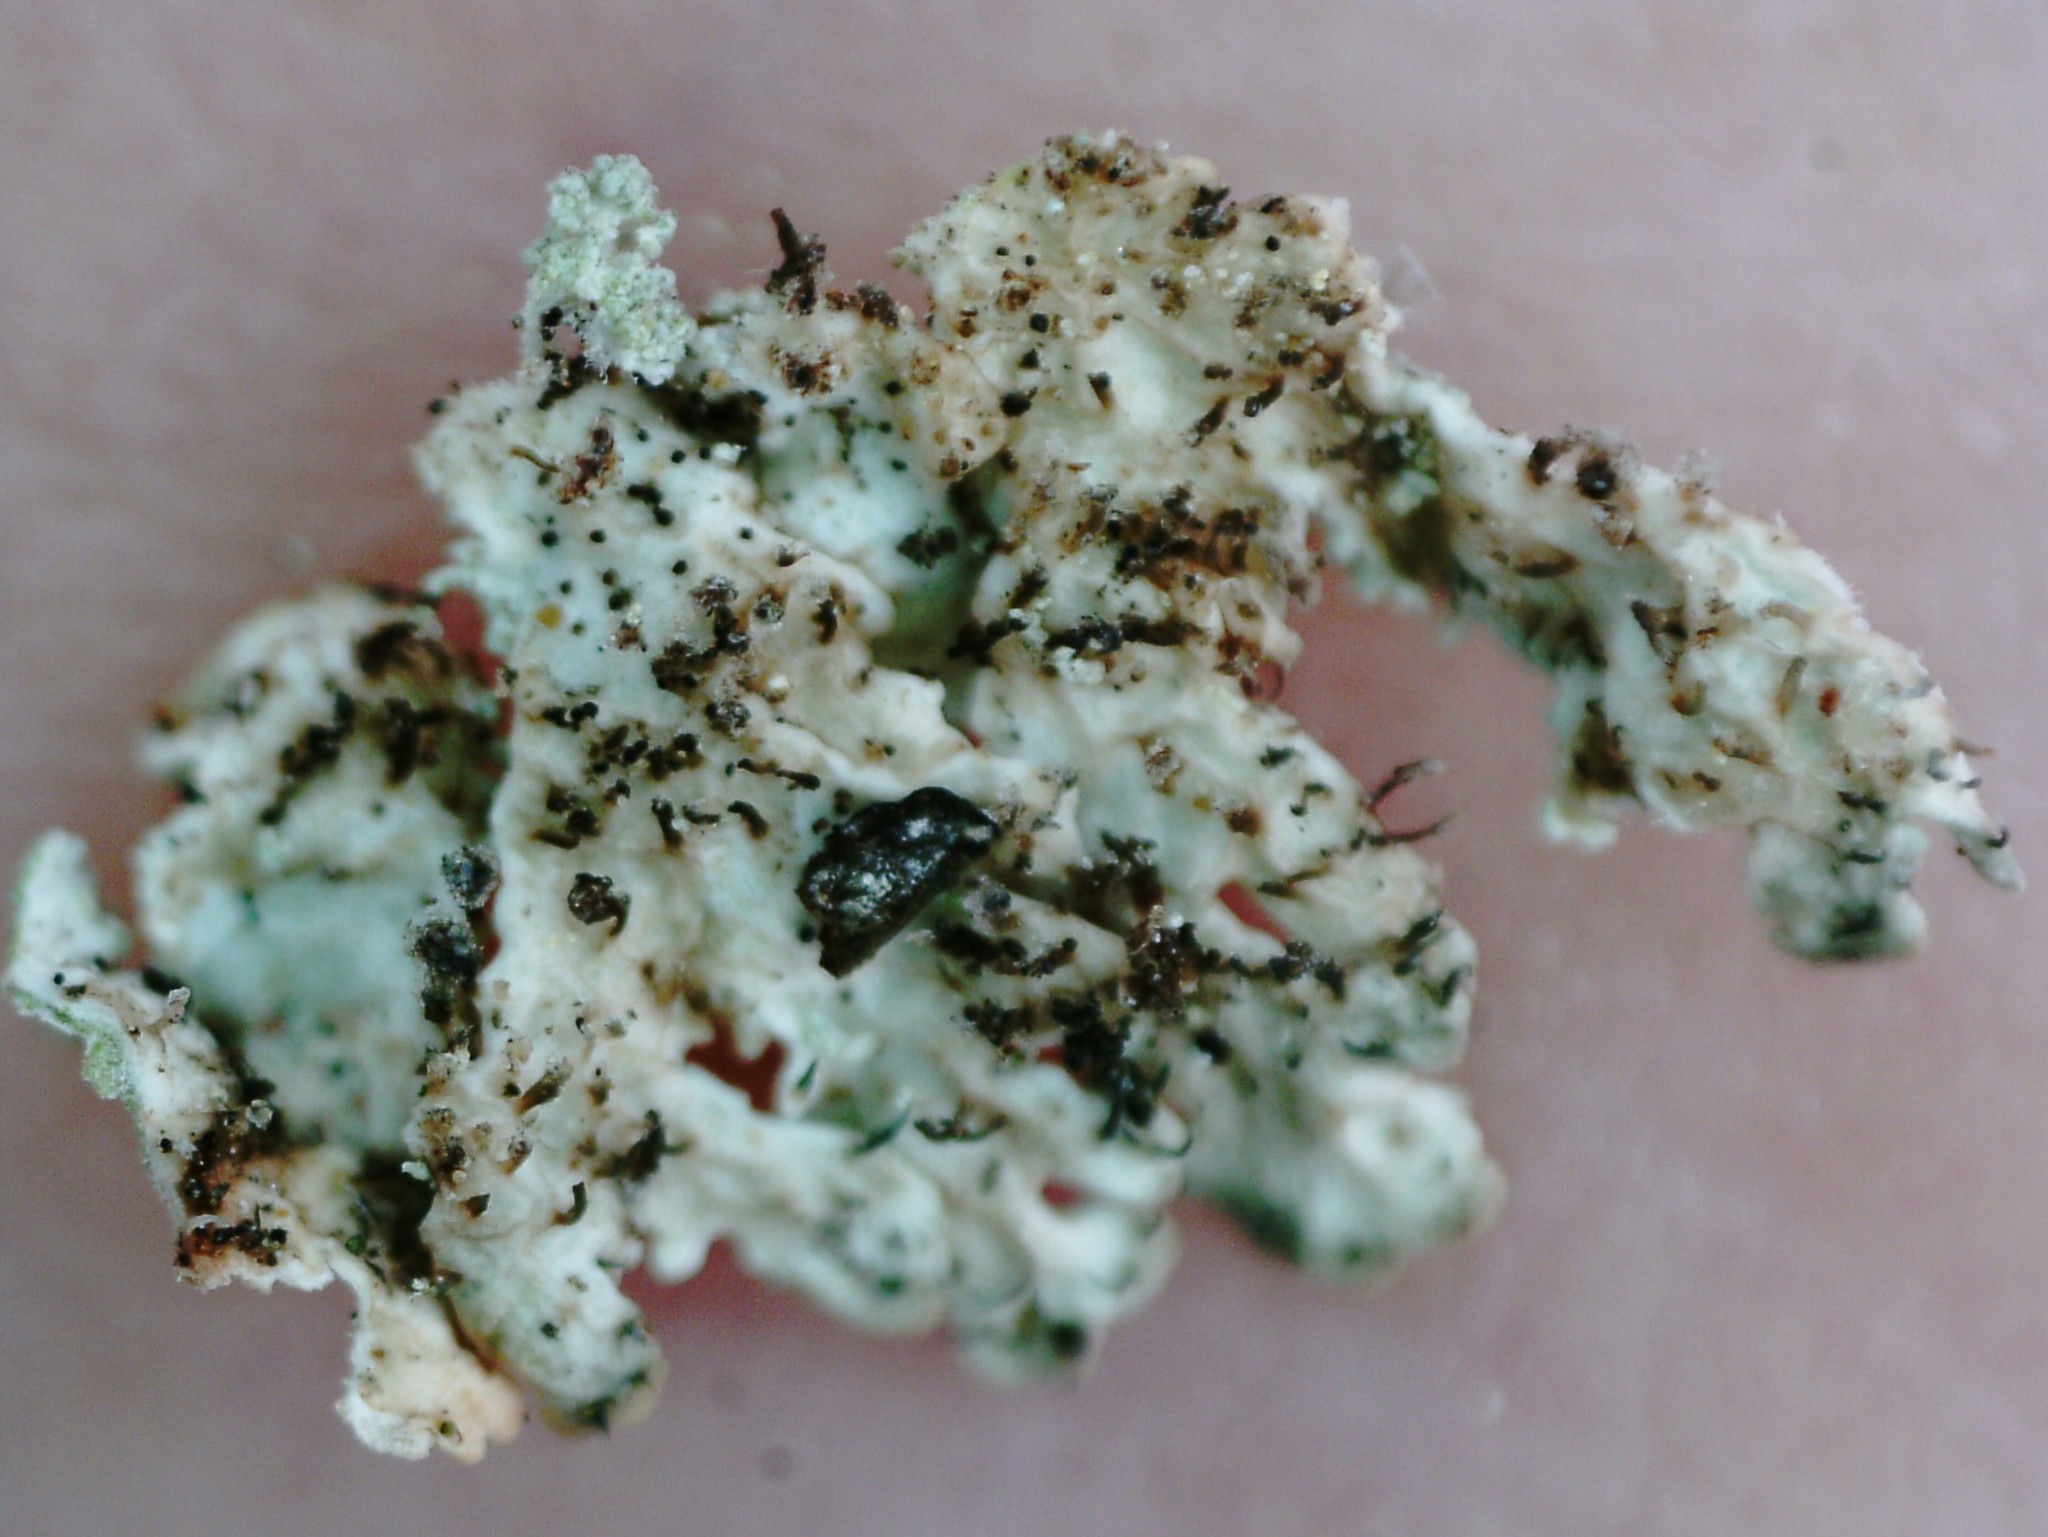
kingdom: Fungi
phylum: Ascomycota
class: Lecanoromycetes
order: Lecanorales
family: Parmeliaceae
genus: Imshaugia
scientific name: Imshaugia aleurites
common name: Salted starburst lichen
